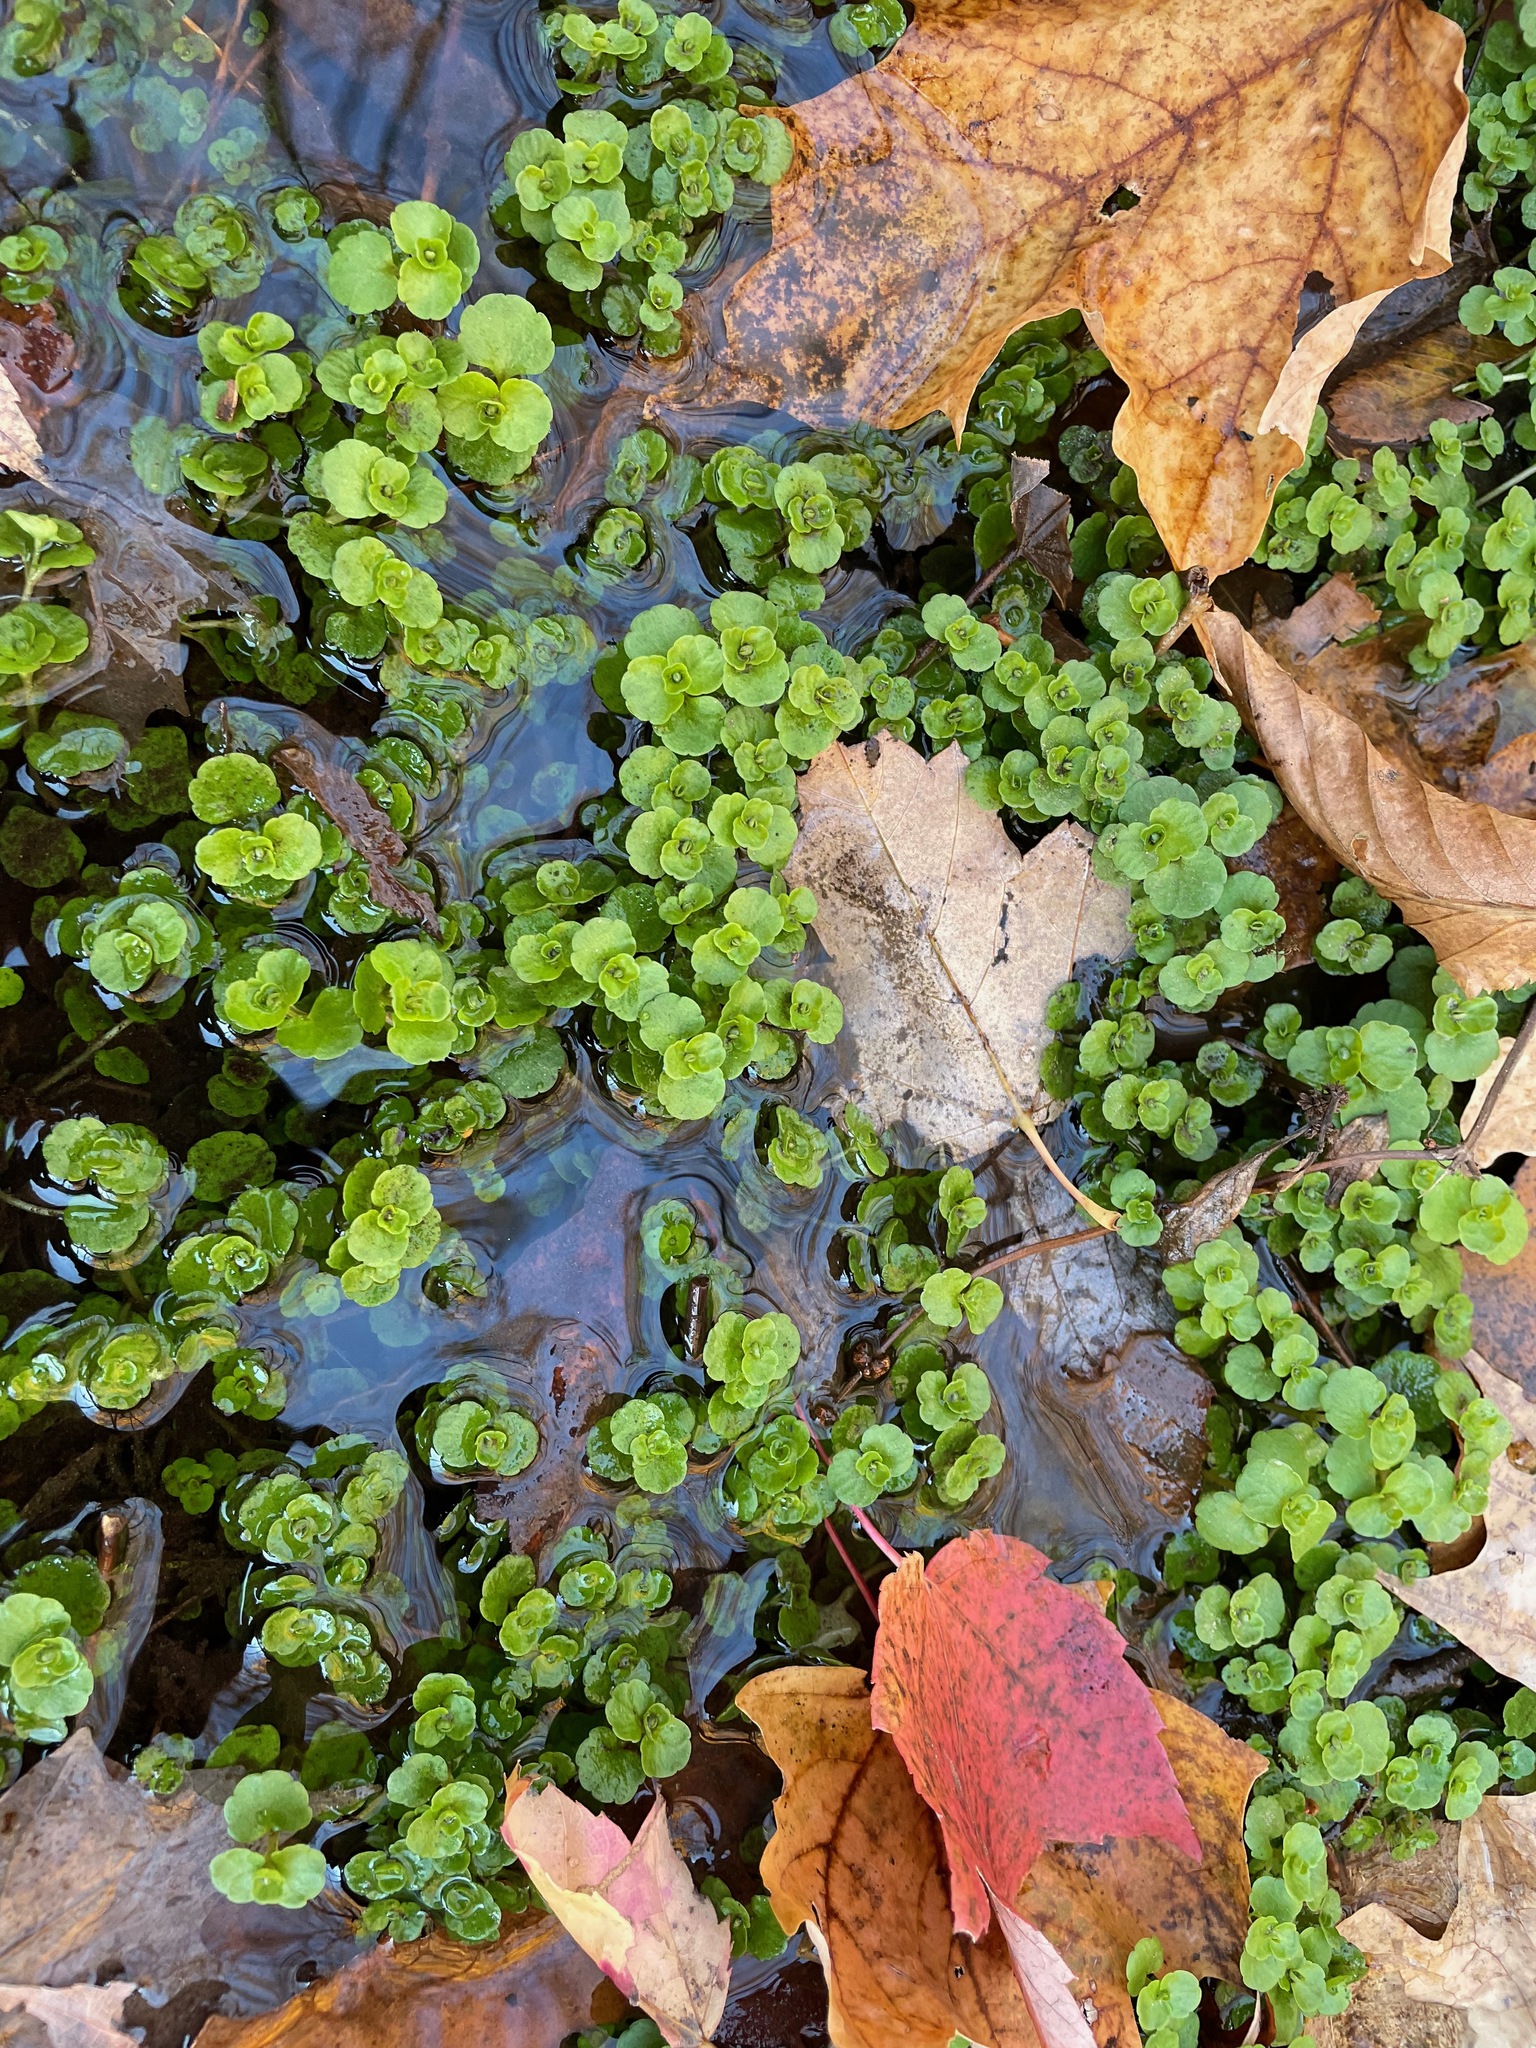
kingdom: Plantae
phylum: Tracheophyta
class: Magnoliopsida
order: Saxifragales
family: Saxifragaceae
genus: Chrysosplenium
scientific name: Chrysosplenium americanum
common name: American golden-saxifrage
